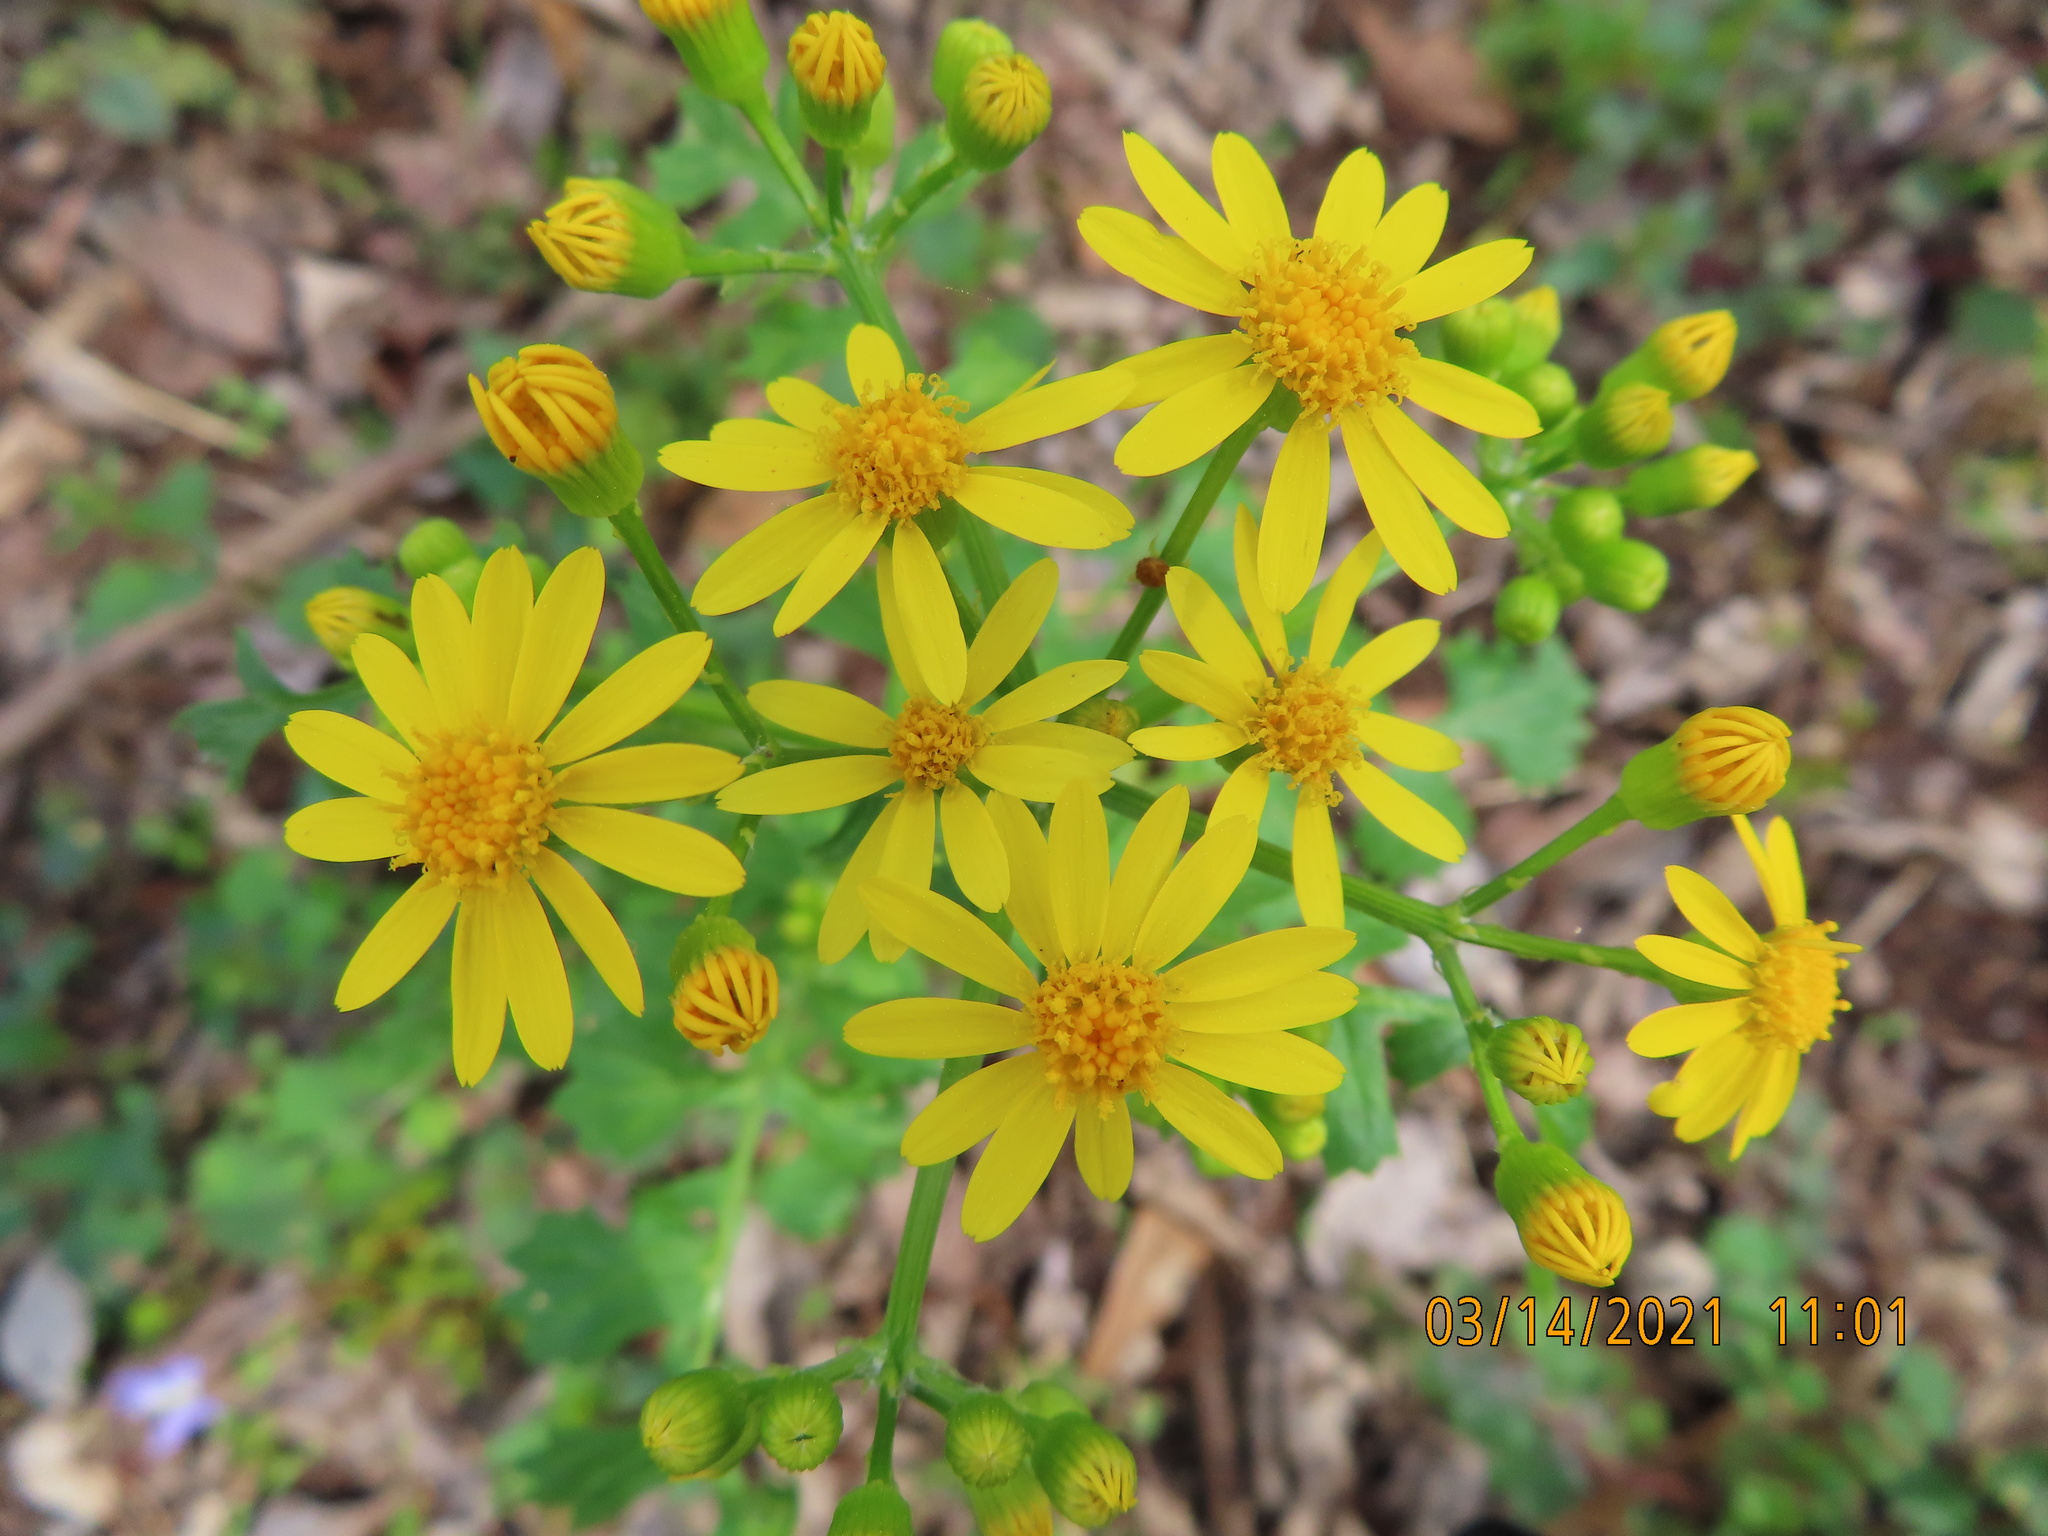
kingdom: Plantae
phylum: Tracheophyta
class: Magnoliopsida
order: Asterales
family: Asteraceae
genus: Packera
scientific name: Packera glabella
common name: Butterweed
